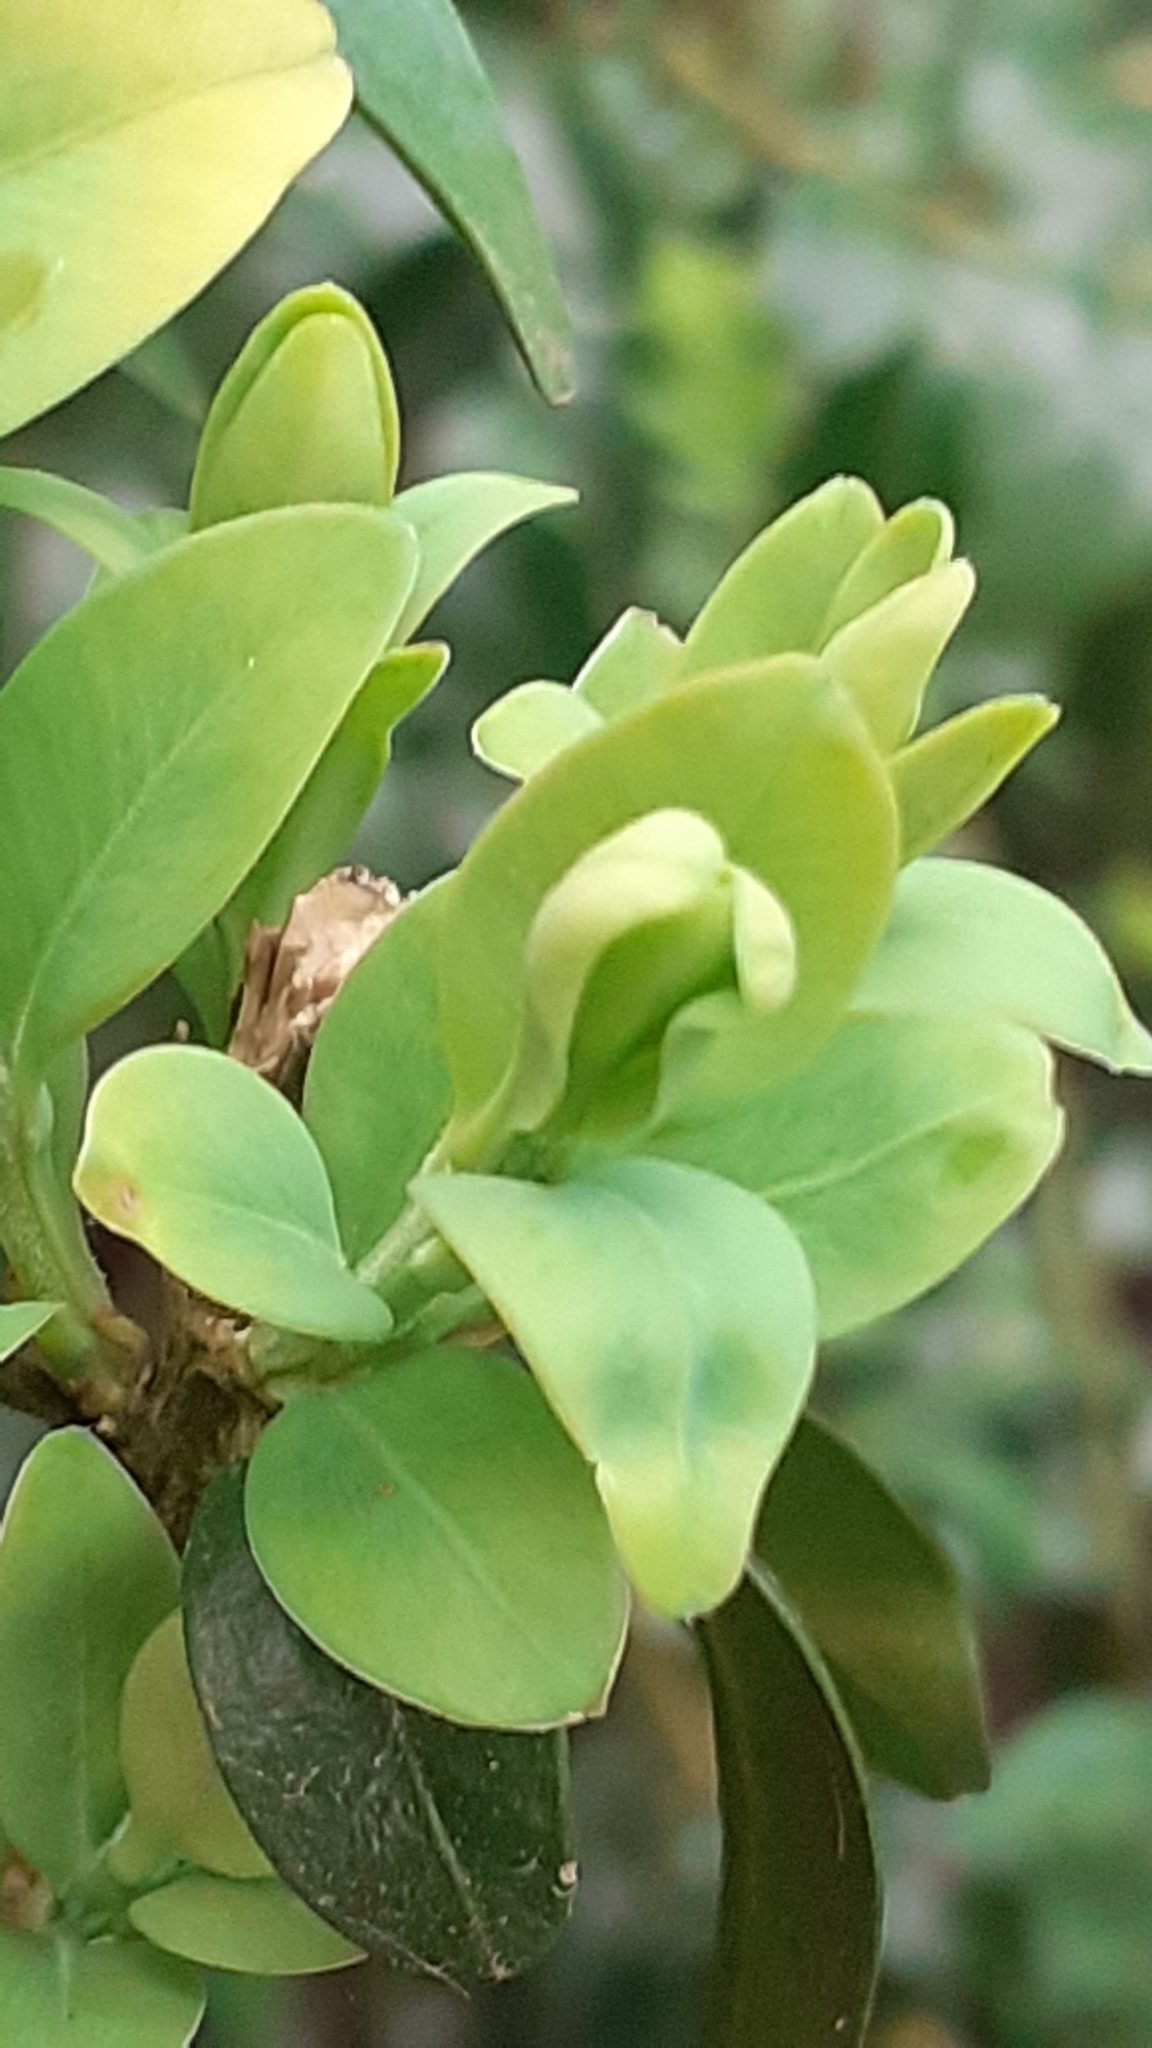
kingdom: Animalia
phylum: Arthropoda
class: Insecta
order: Hemiptera
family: Psyllidae
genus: Psylla
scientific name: Psylla buxi
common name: Boxwood psyllid
